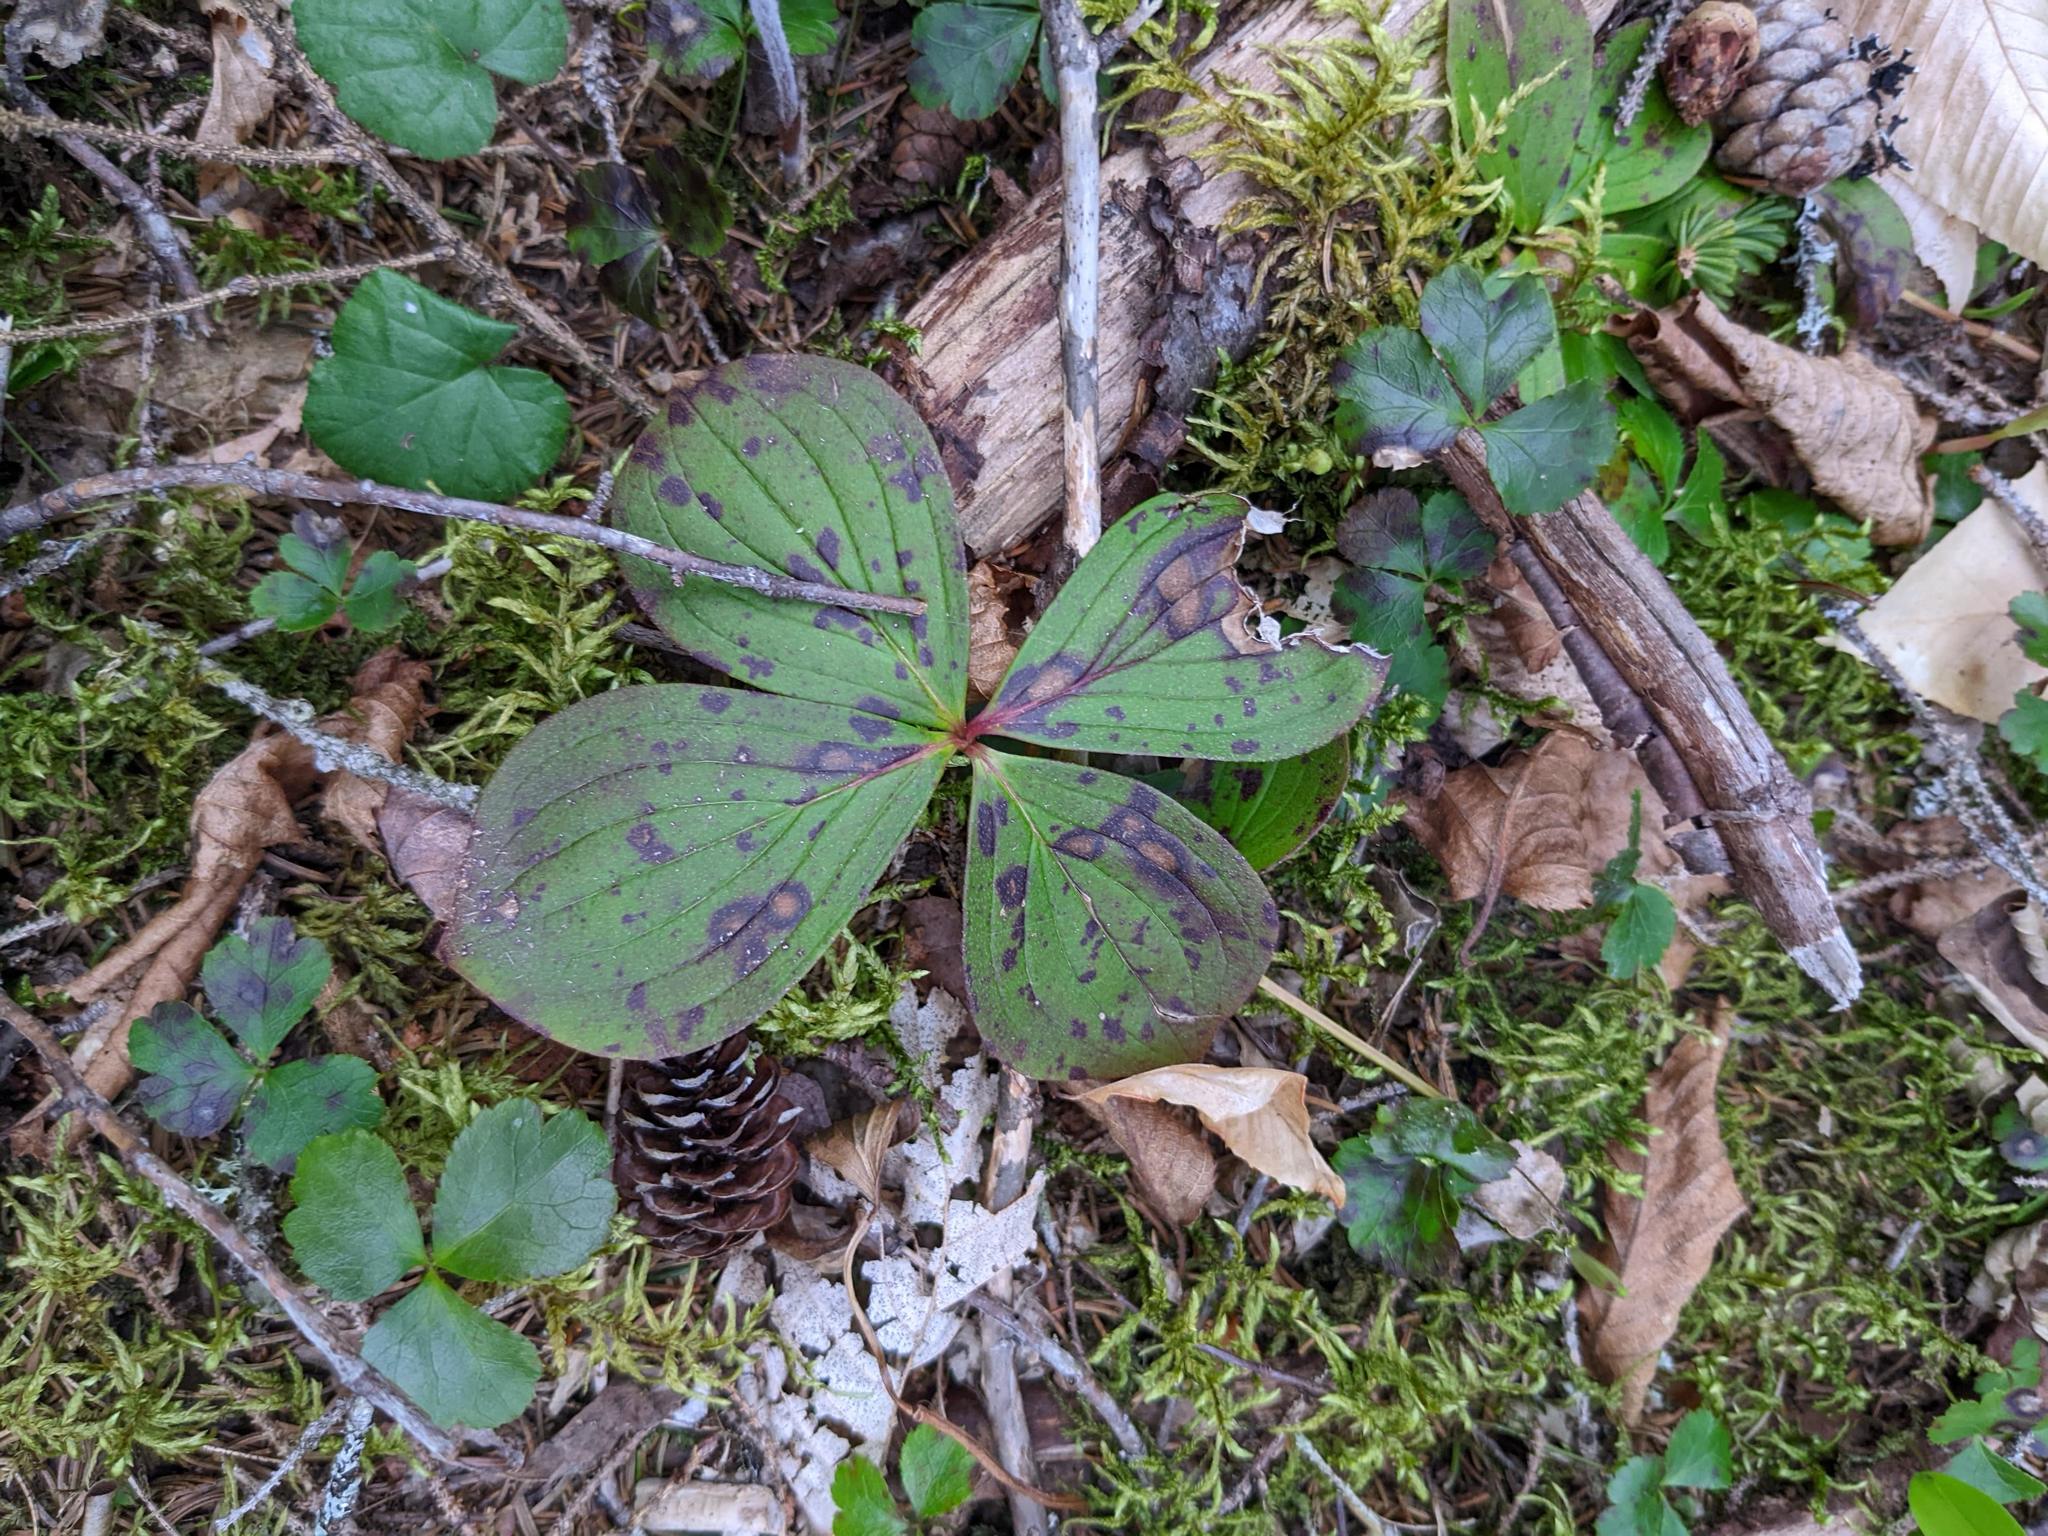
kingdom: Plantae
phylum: Tracheophyta
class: Magnoliopsida
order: Ranunculales
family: Ranunculaceae
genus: Coptis
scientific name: Coptis trifolia
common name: Canker-root
